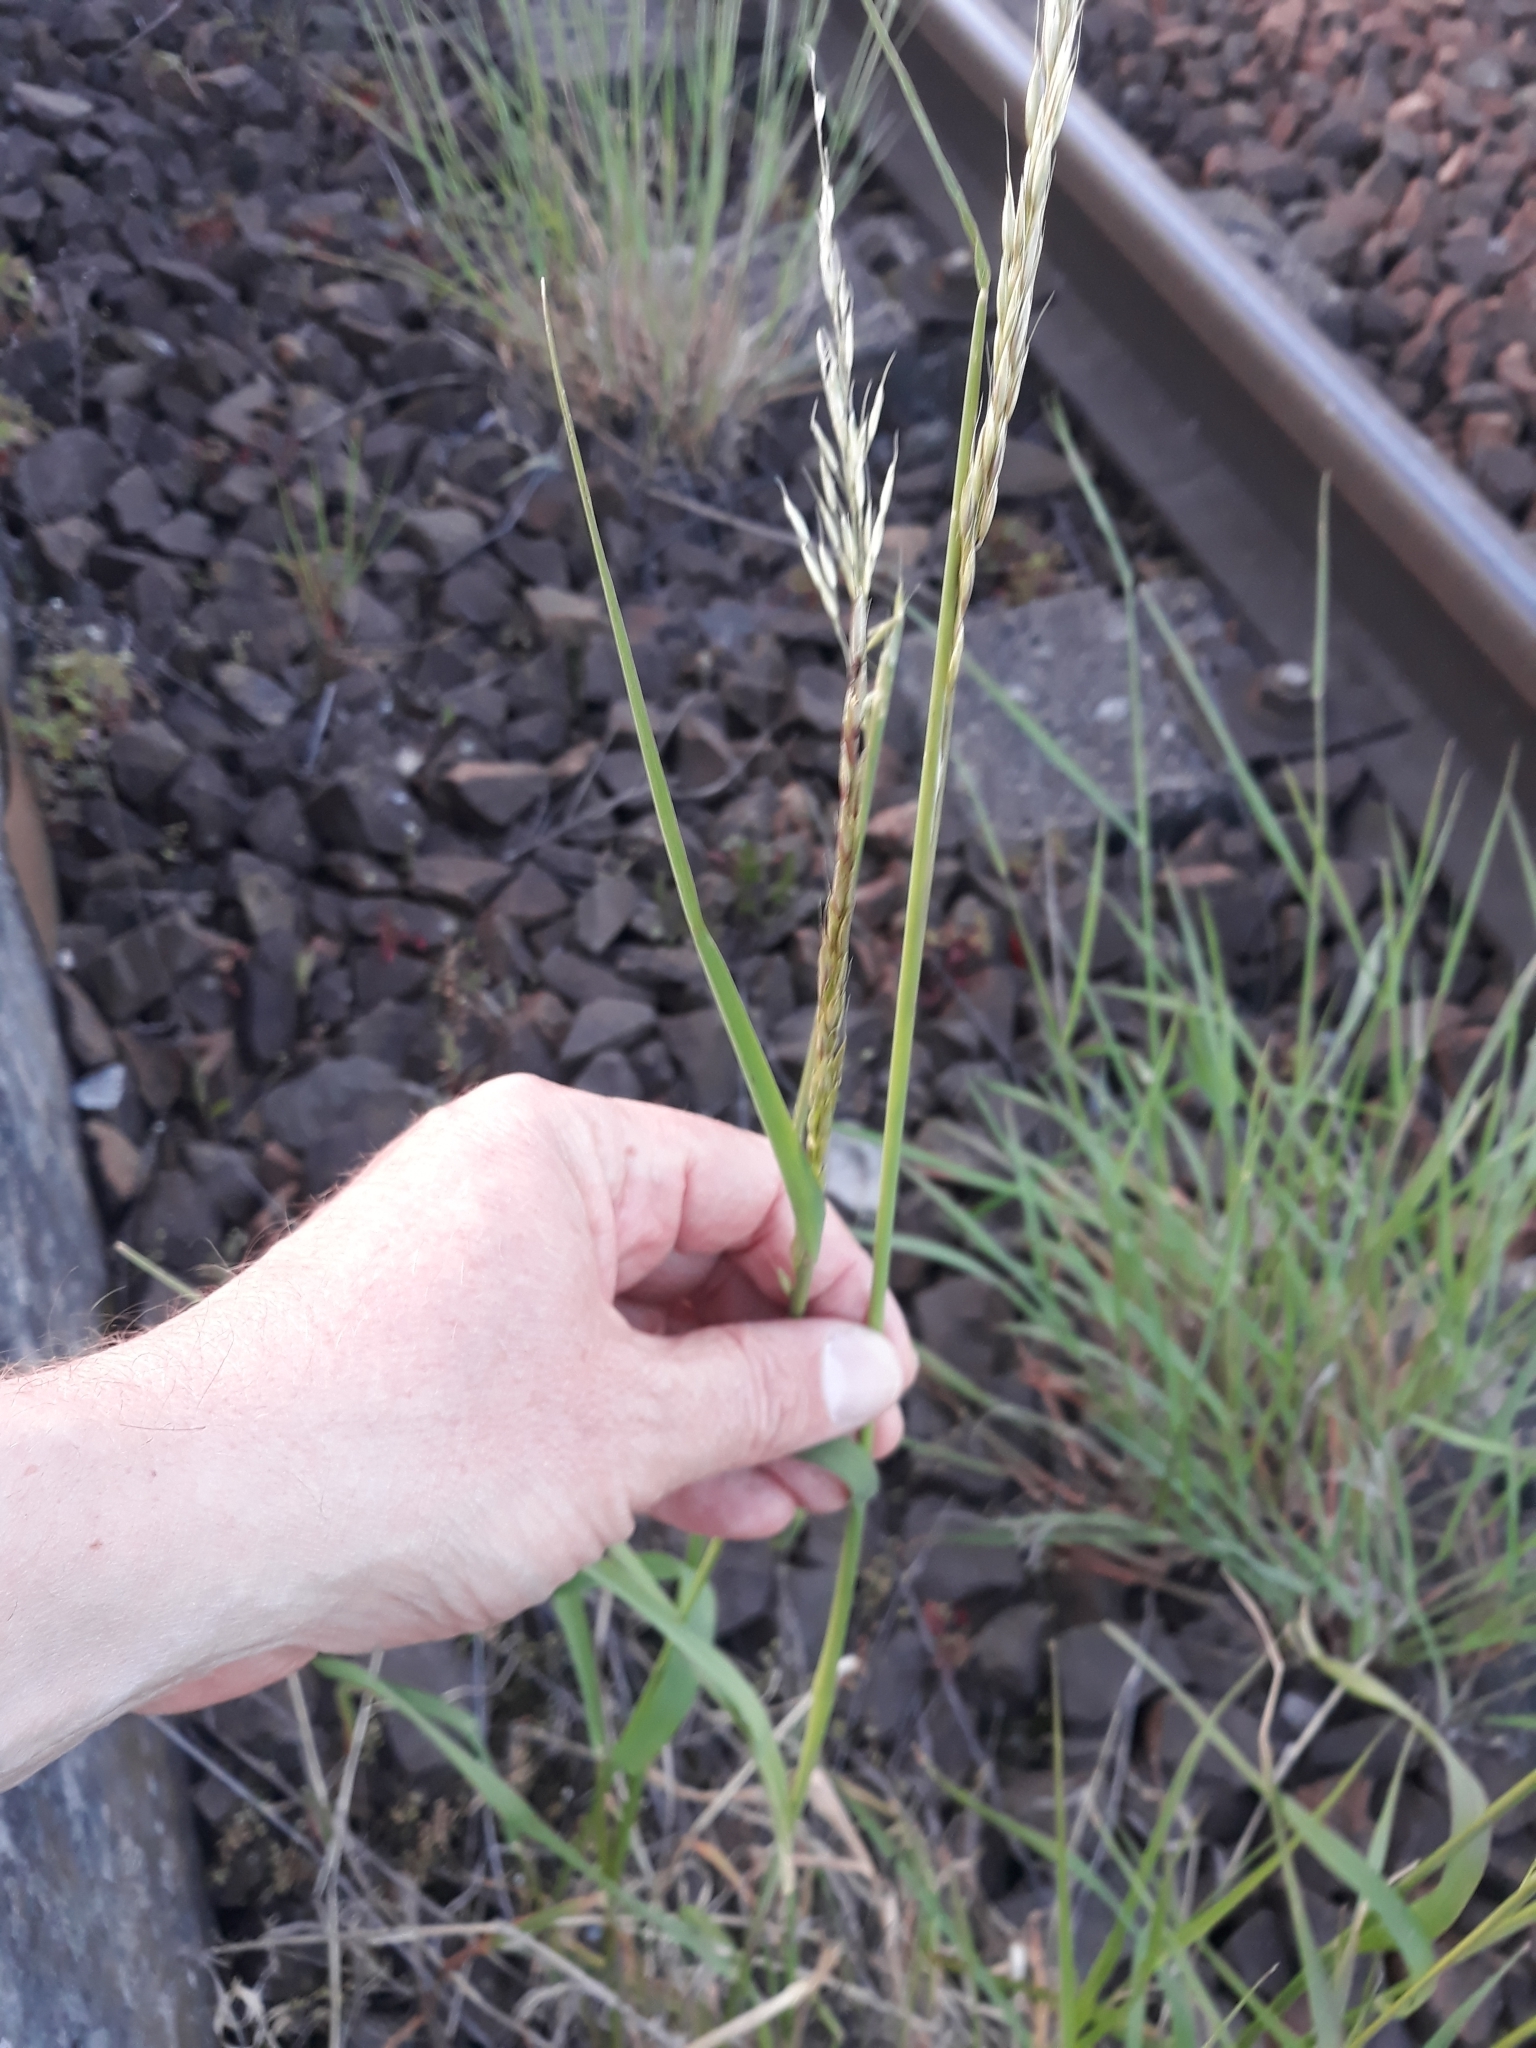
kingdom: Plantae
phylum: Tracheophyta
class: Liliopsida
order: Poales
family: Poaceae
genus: Arrhenatherum
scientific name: Arrhenatherum elatius
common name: Tall oatgrass
